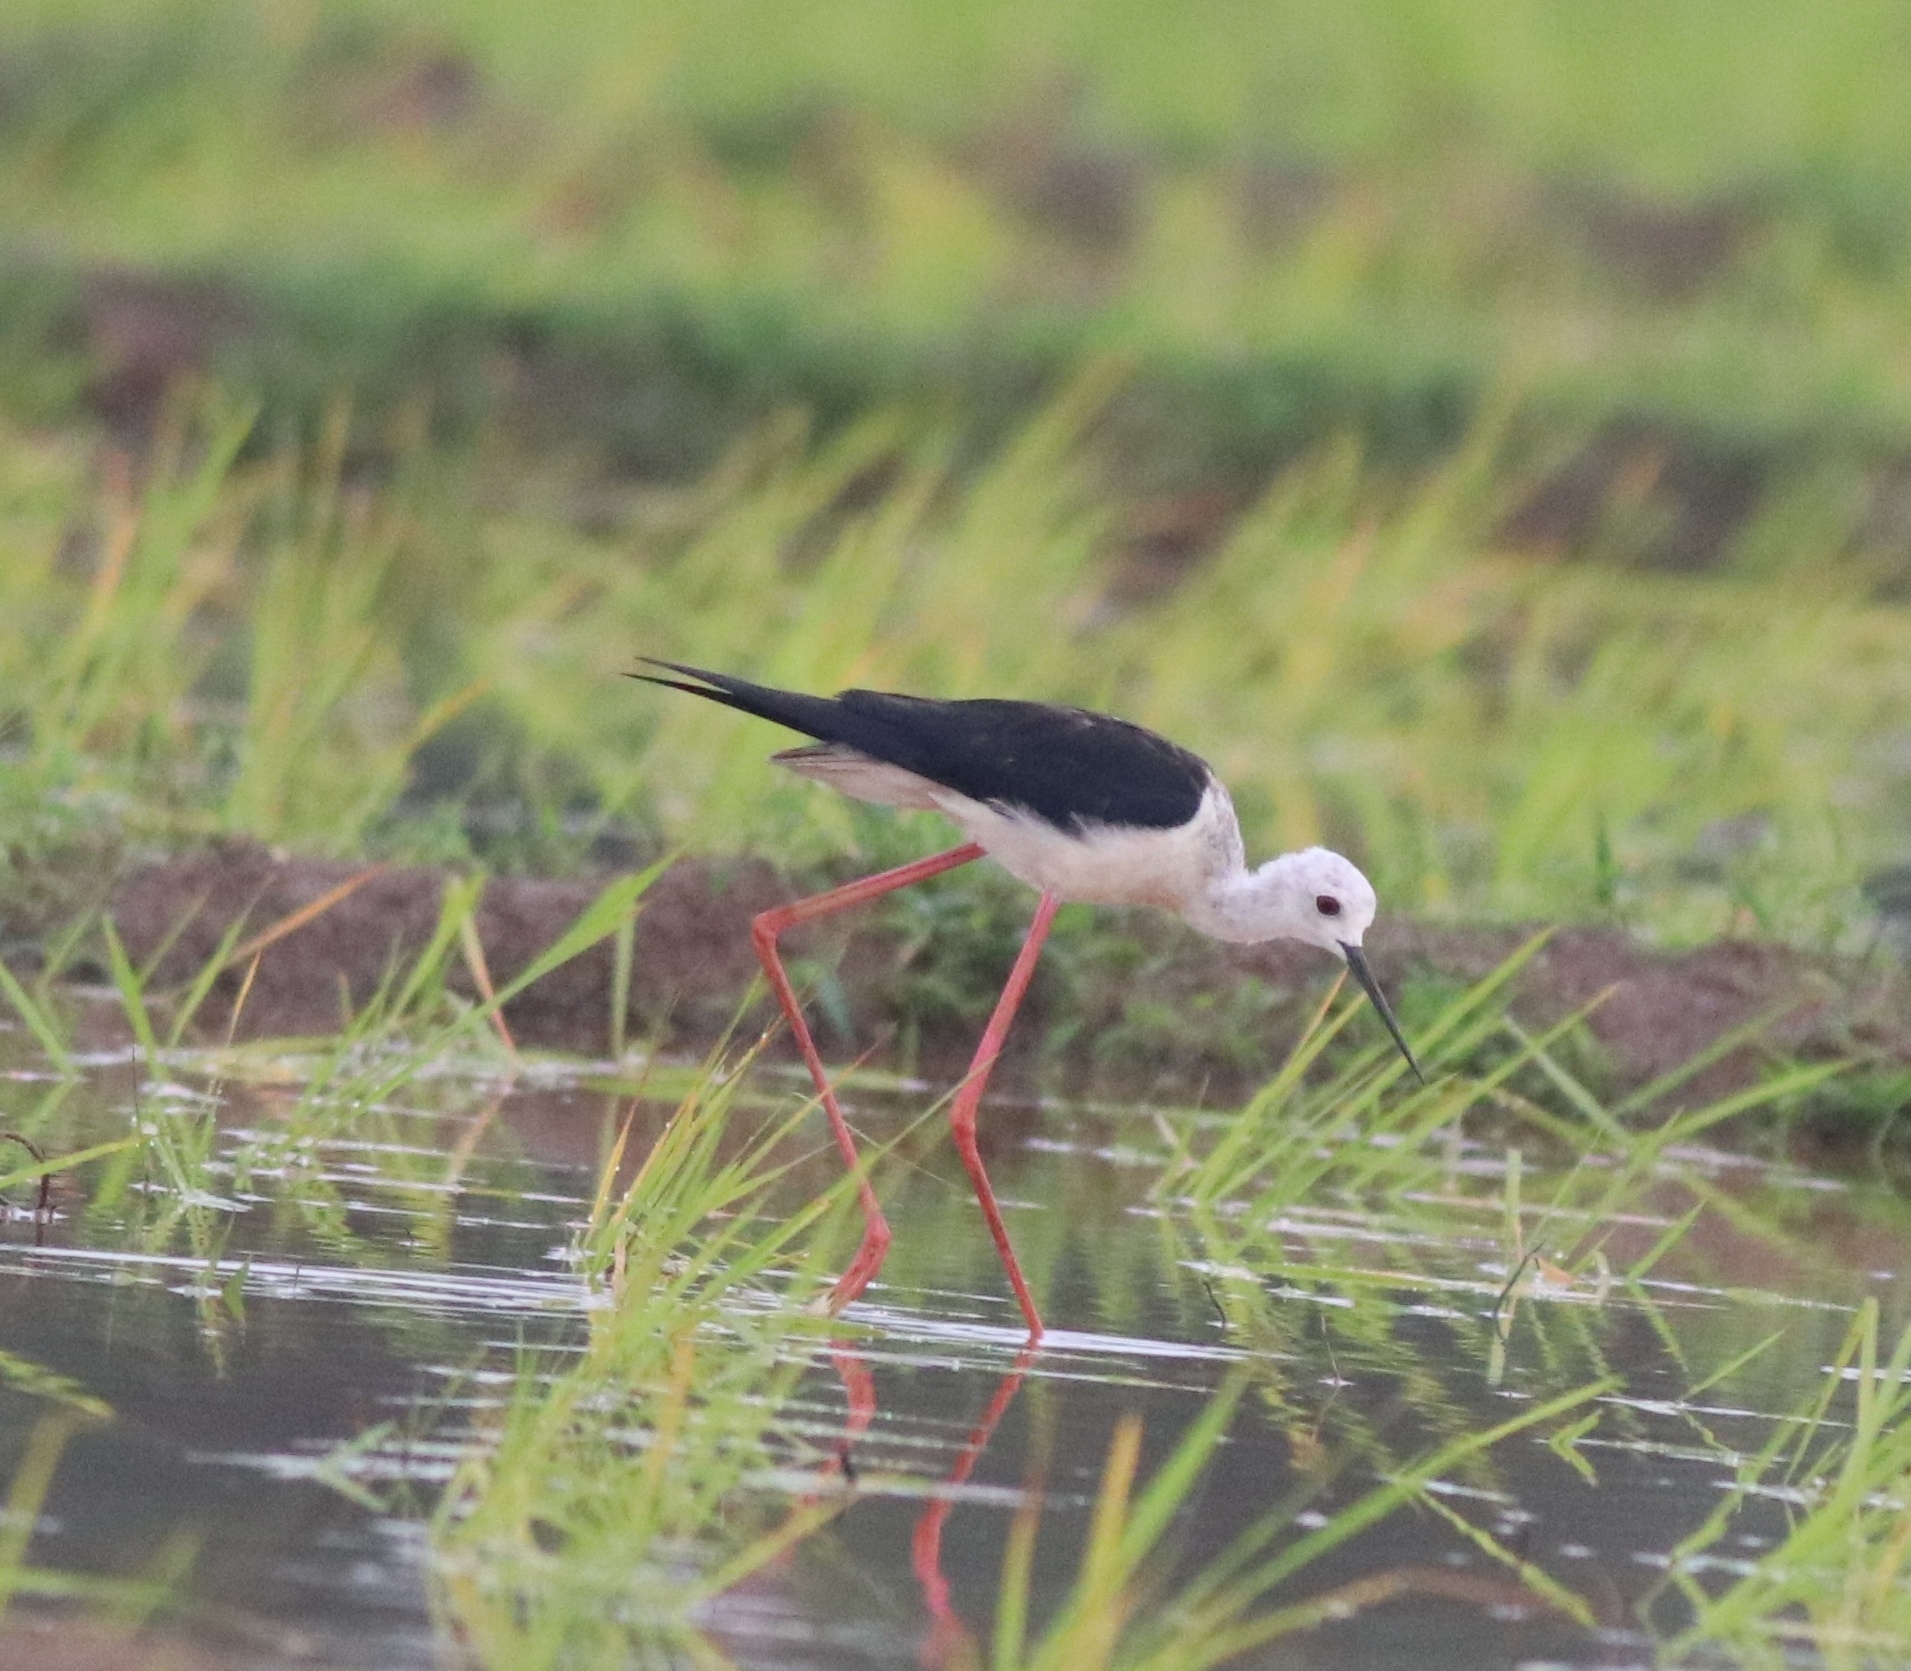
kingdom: Animalia
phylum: Chordata
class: Aves
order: Charadriiformes
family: Recurvirostridae
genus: Himantopus
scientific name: Himantopus himantopus
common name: Black-winged stilt
